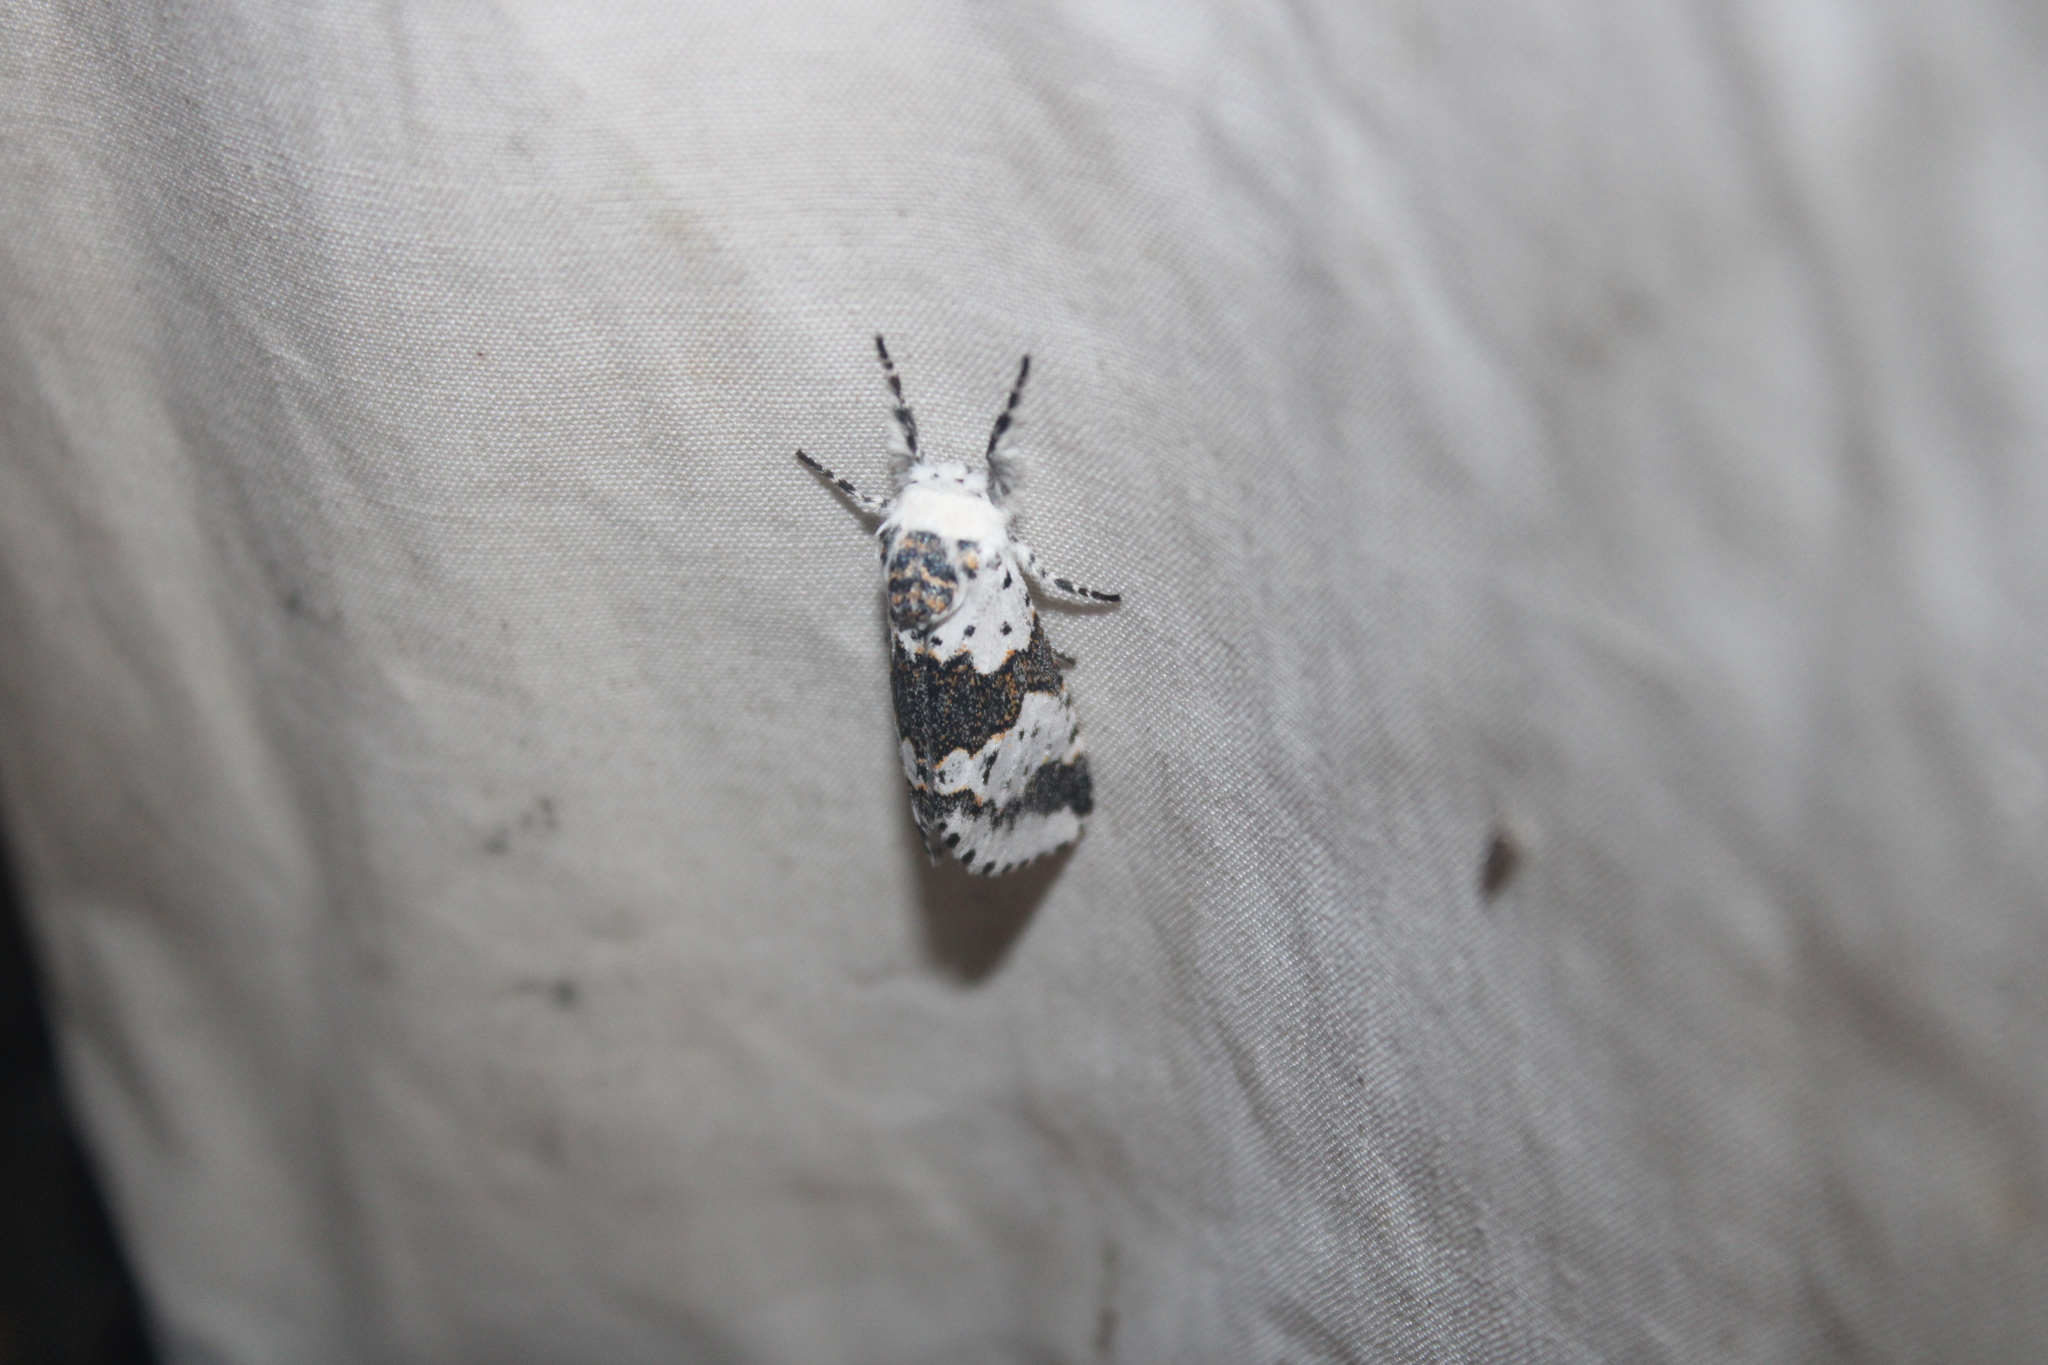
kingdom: Animalia
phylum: Arthropoda
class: Insecta
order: Lepidoptera
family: Notodontidae
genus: Furcula
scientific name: Furcula borealis
